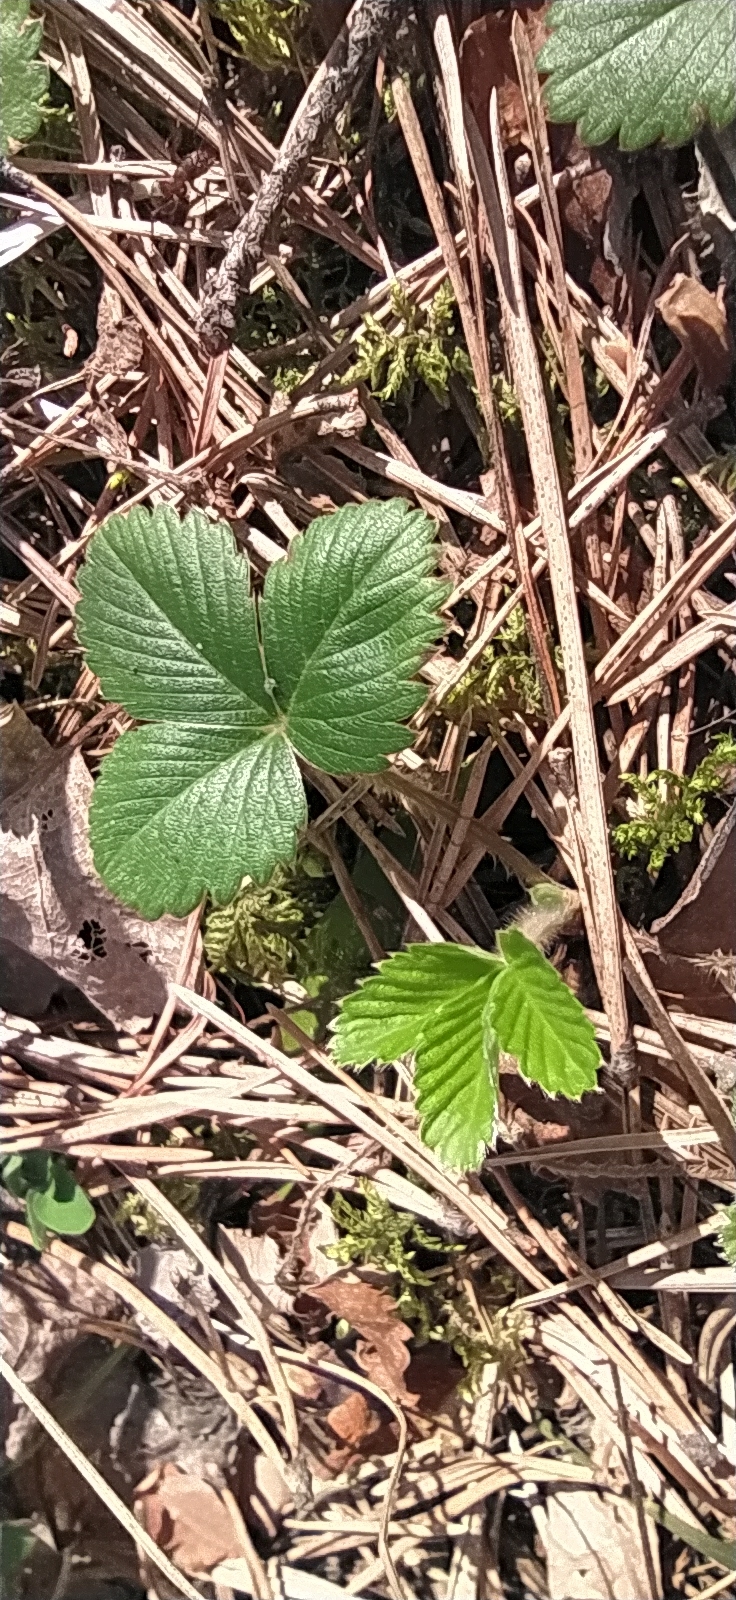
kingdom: Plantae
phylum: Tracheophyta
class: Magnoliopsida
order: Rosales
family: Rosaceae
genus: Fragaria
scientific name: Fragaria vesca
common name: Wild strawberry
